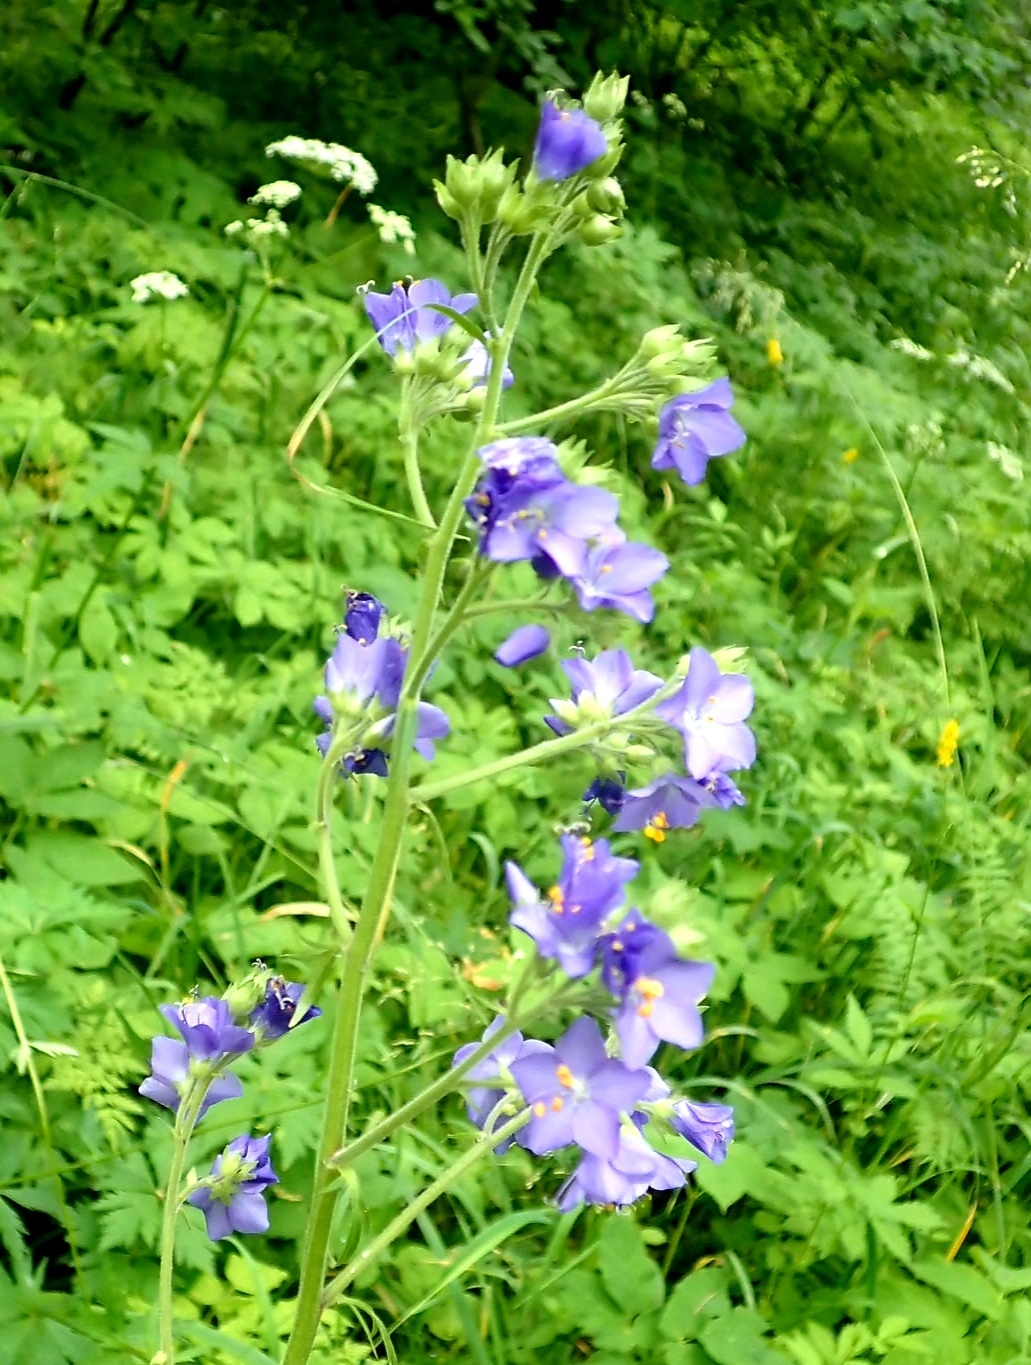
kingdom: Plantae
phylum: Tracheophyta
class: Magnoliopsida
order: Ericales
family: Polemoniaceae
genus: Polemonium
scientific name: Polemonium caeruleum
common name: Jacob's-ladder
